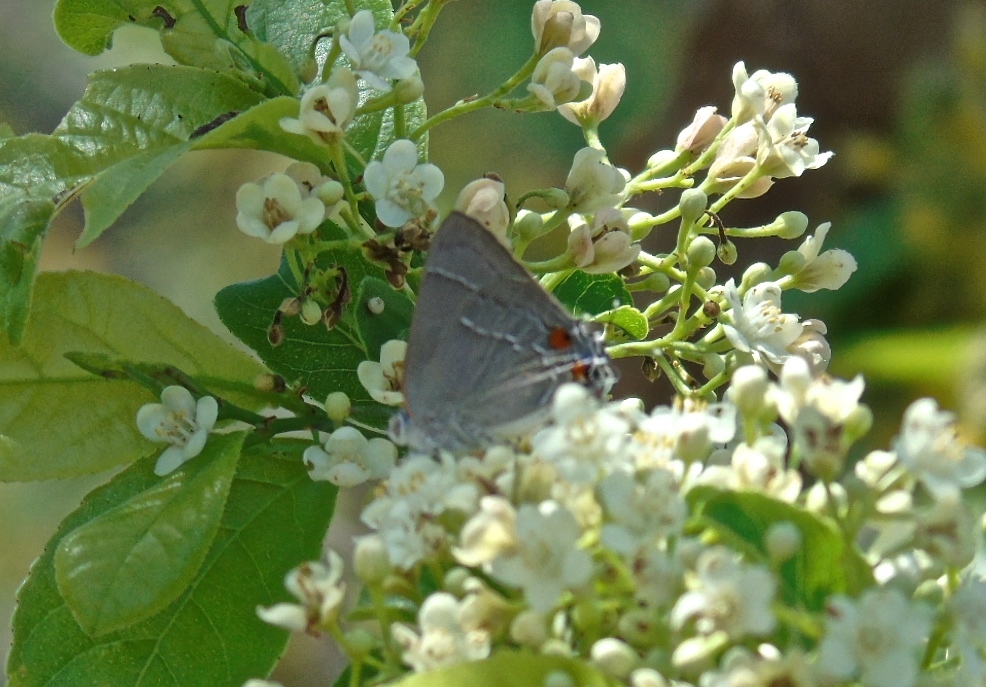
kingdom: Animalia
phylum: Arthropoda
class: Insecta
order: Lepidoptera
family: Lycaenidae
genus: Rekoa
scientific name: Rekoa
